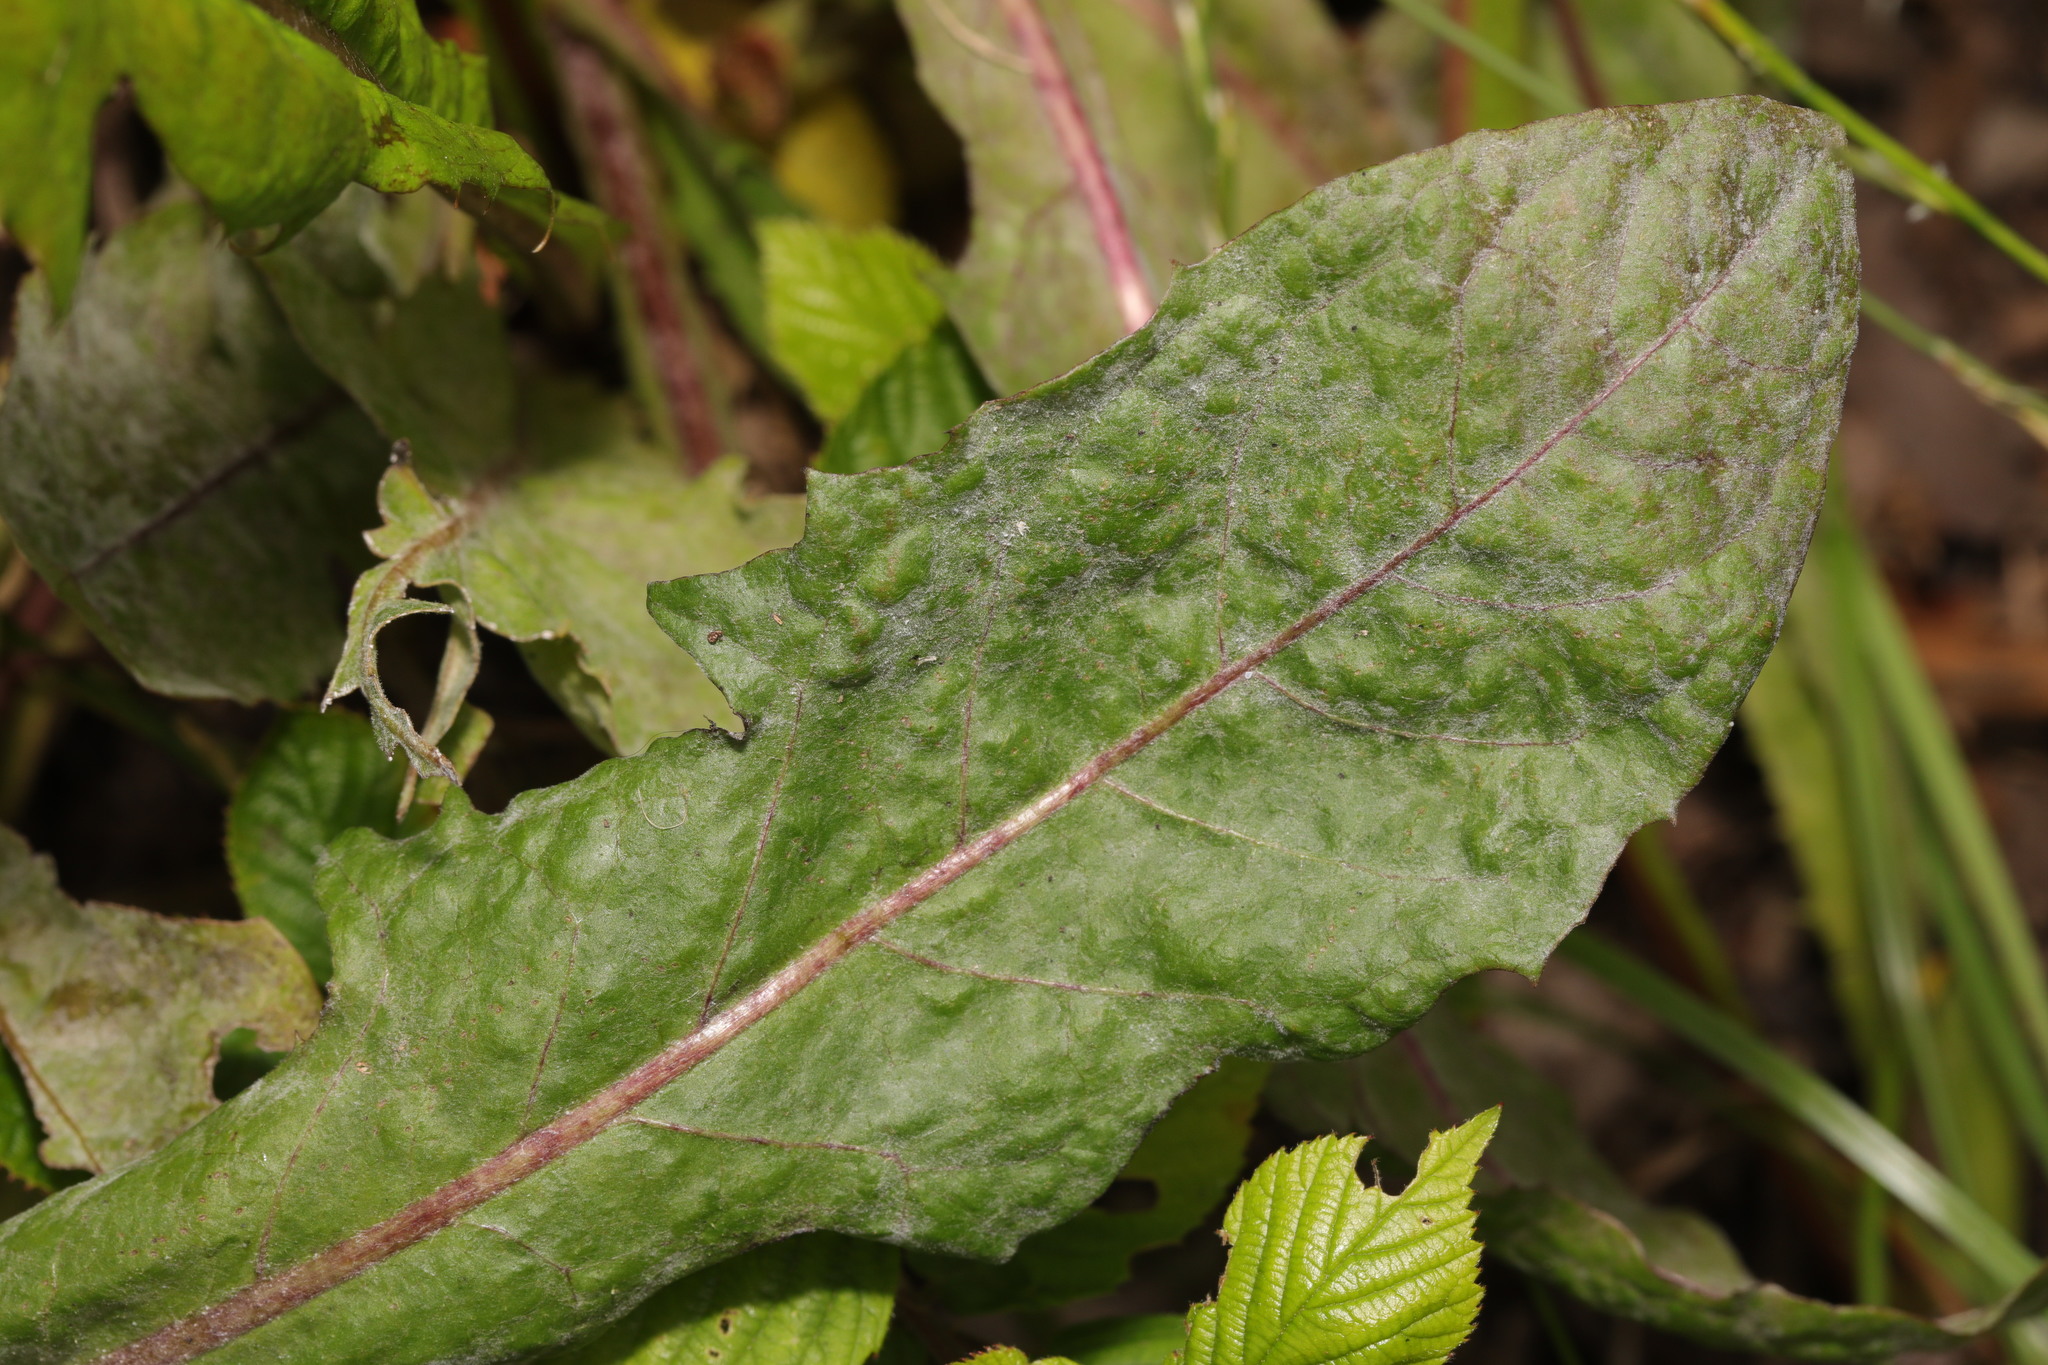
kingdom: Fungi
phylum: Ascomycota
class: Leotiomycetes
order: Helotiales
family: Erysiphaceae
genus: Podosphaera
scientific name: Podosphaera erigerontis-canadensis
